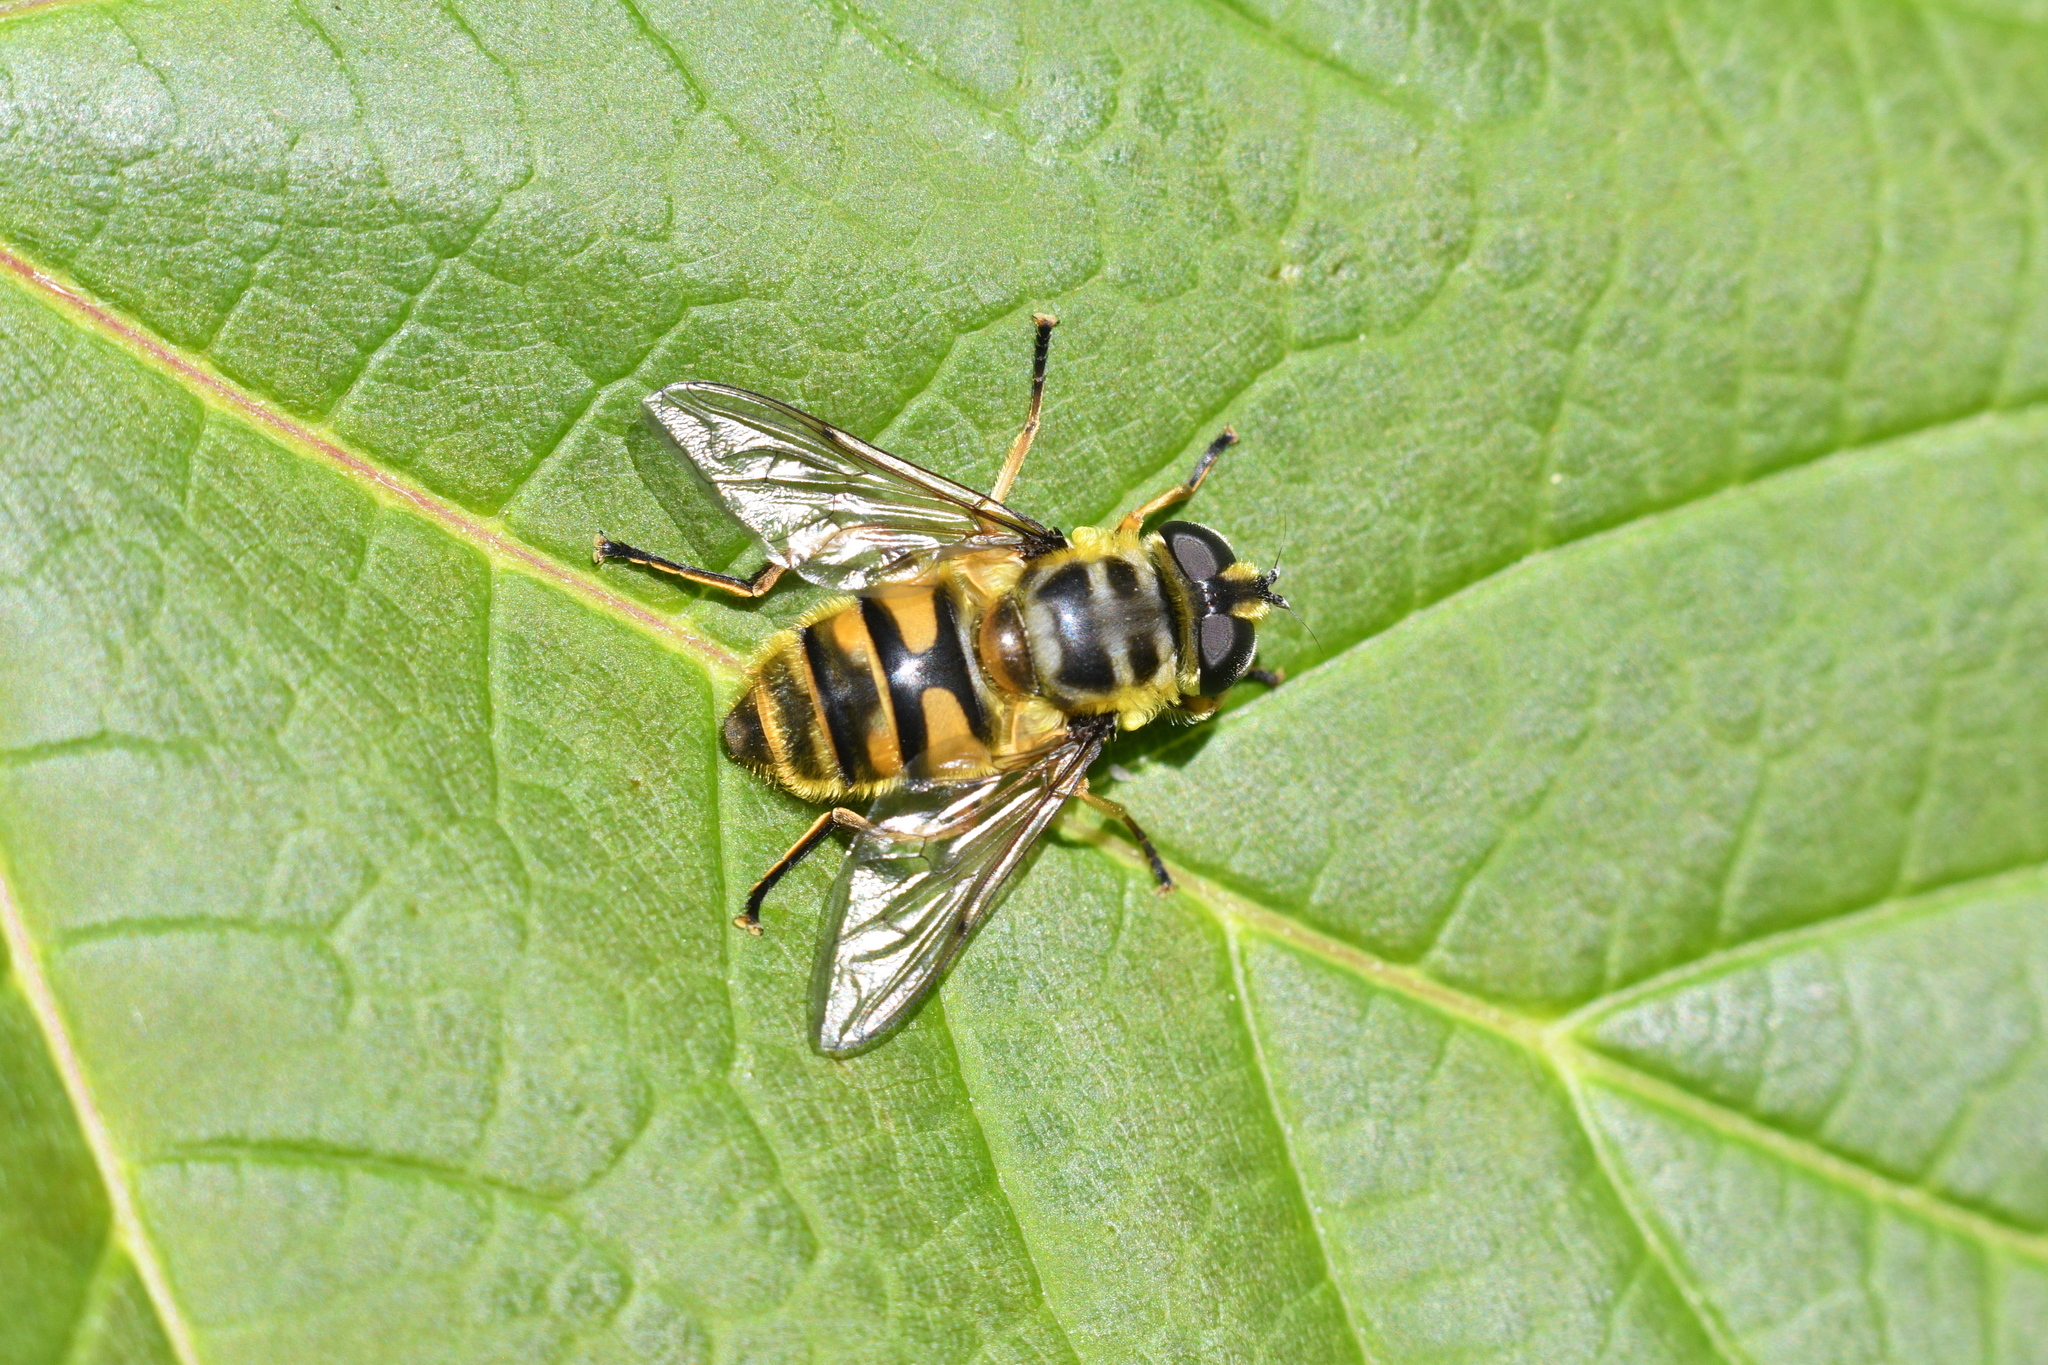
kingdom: Animalia
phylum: Arthropoda
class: Insecta
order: Diptera
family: Syrphidae
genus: Myathropa
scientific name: Myathropa florea
